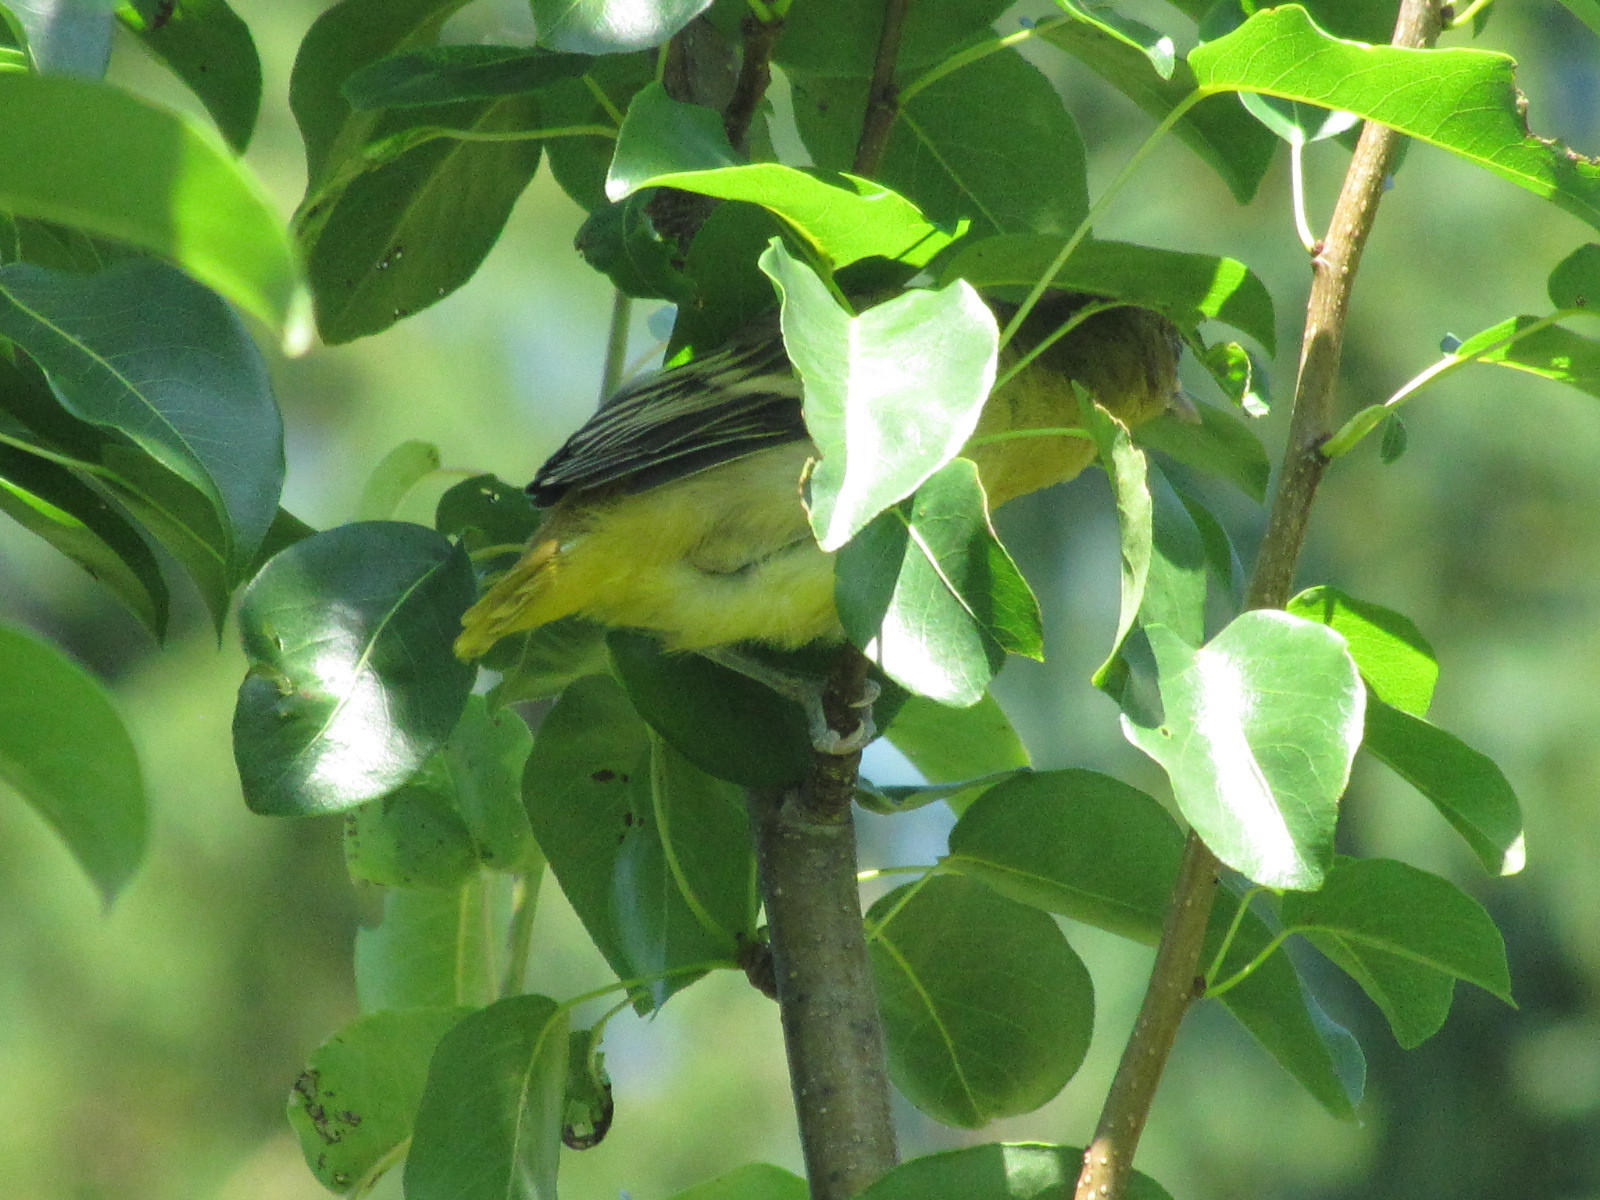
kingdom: Animalia
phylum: Chordata
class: Aves
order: Passeriformes
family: Icteridae
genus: Icterus
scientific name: Icterus galbula
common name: Baltimore oriole
